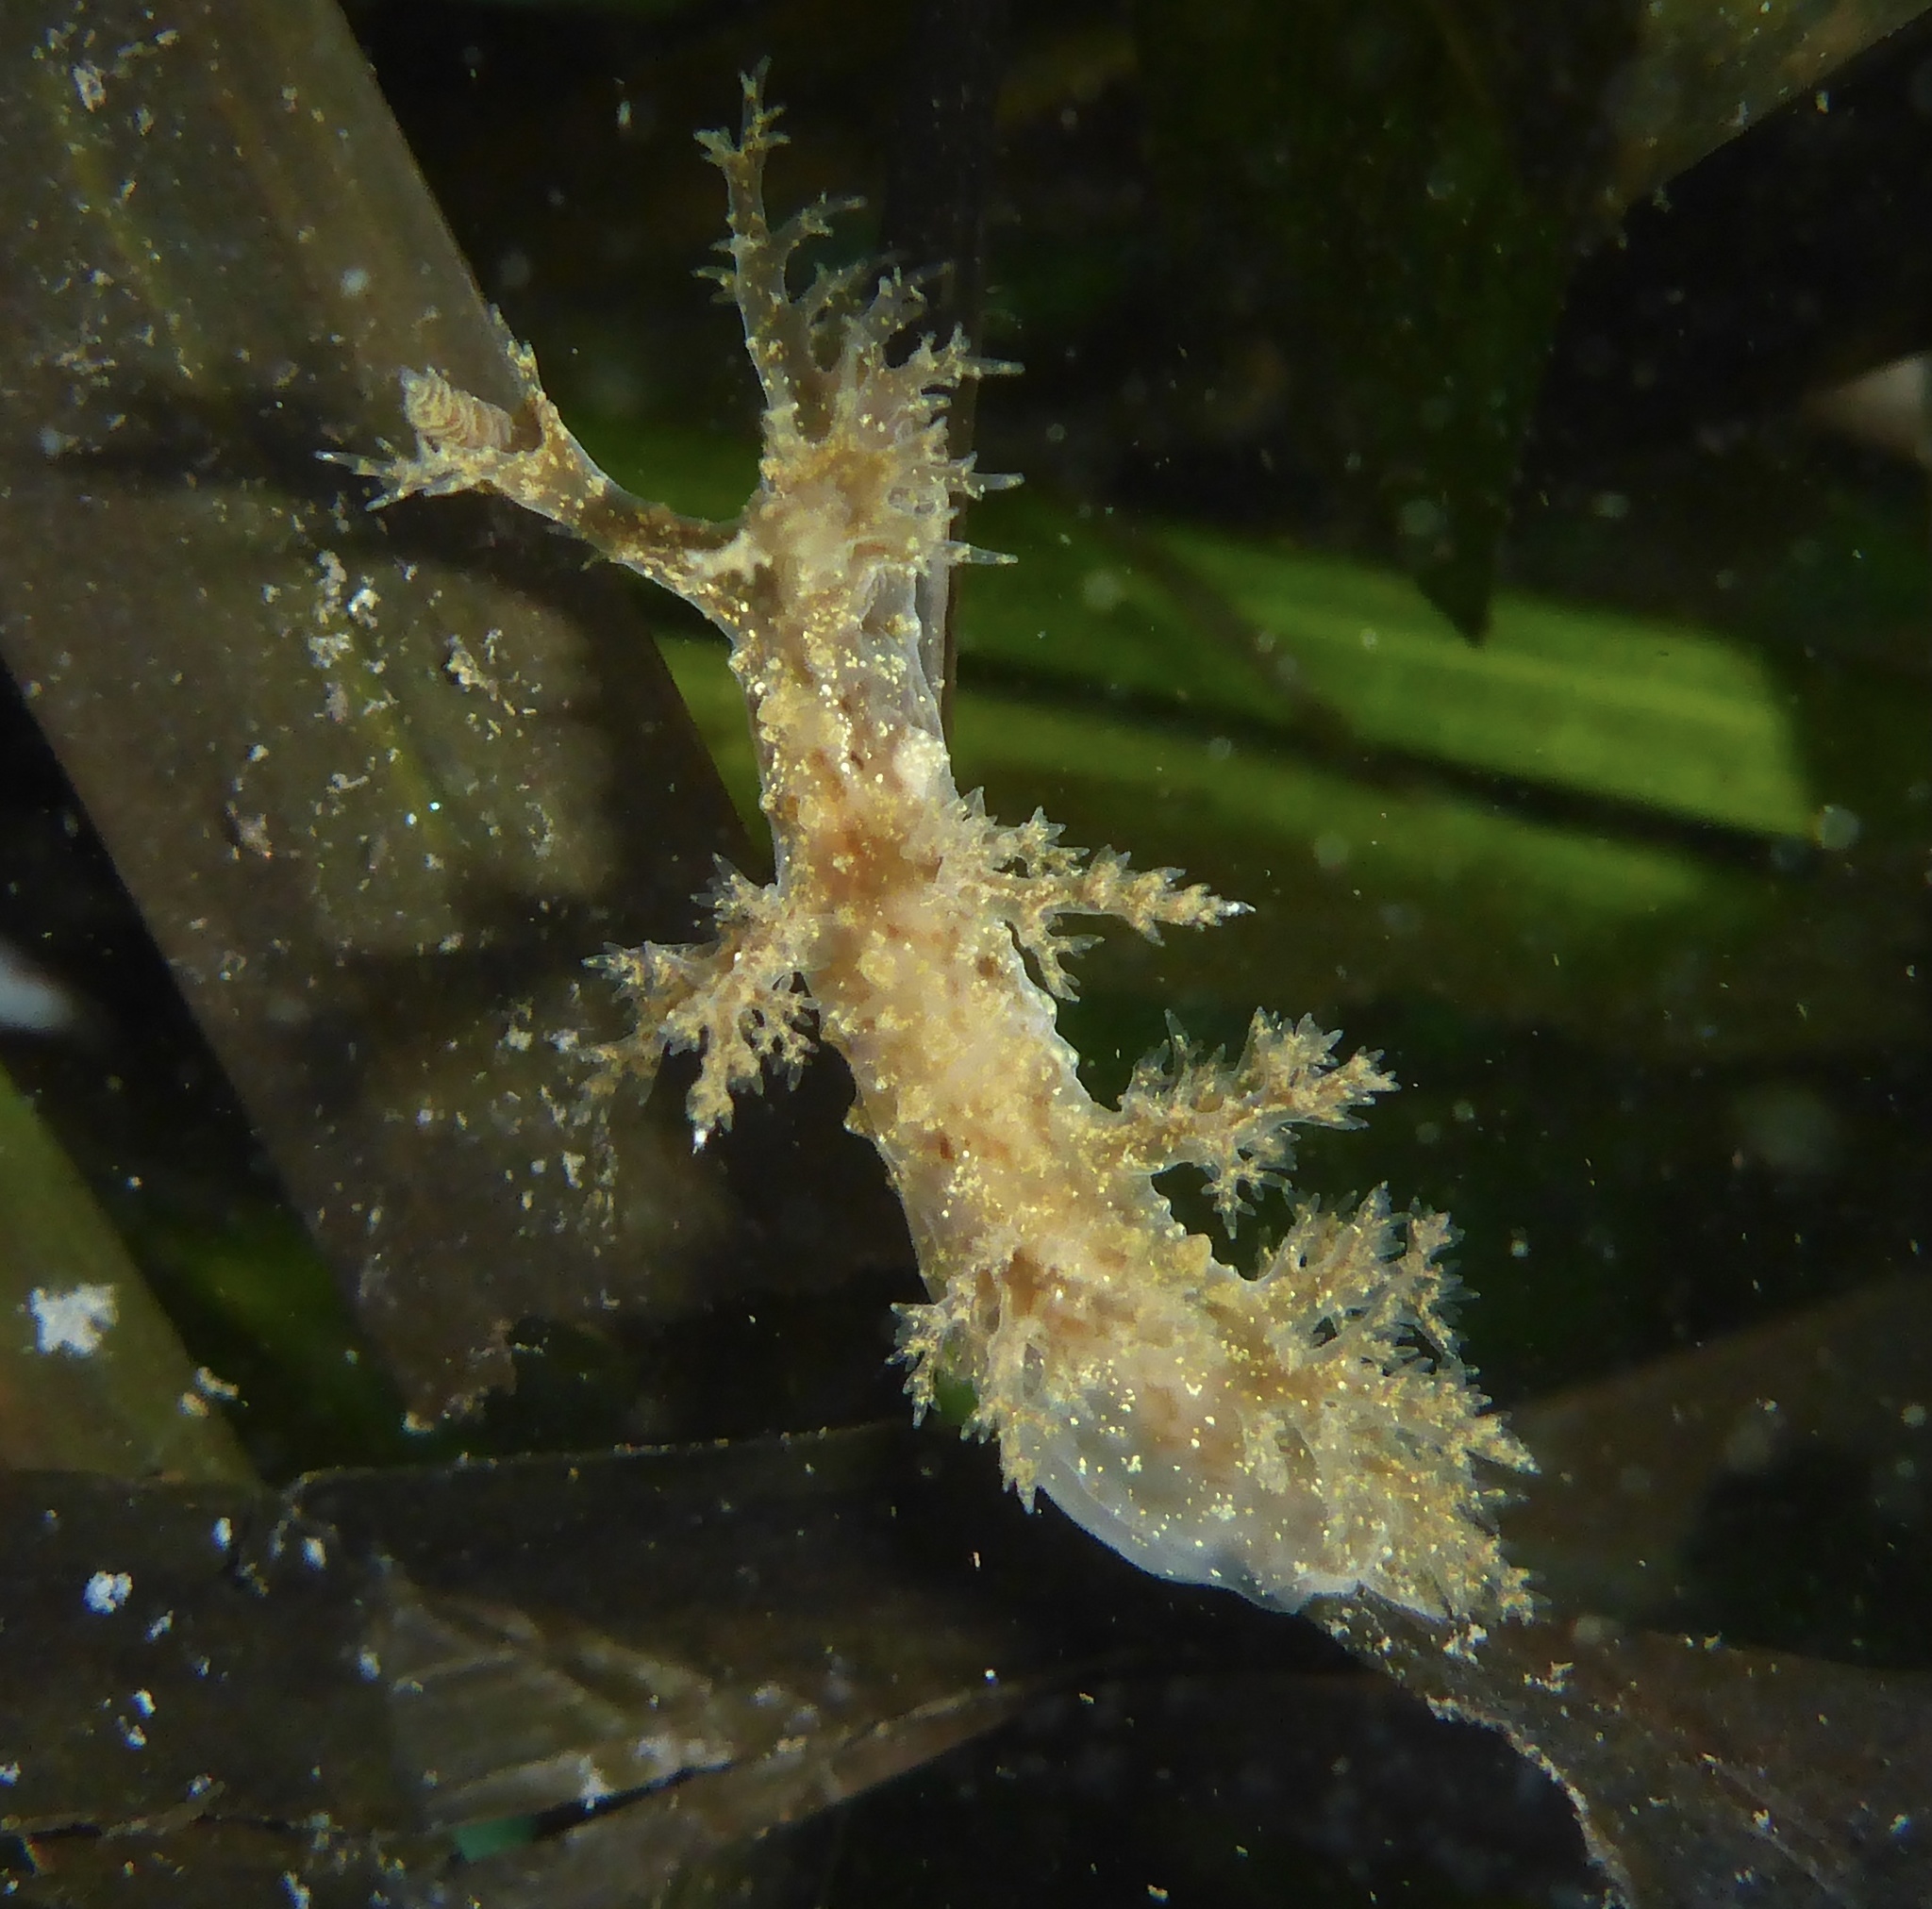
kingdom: Animalia
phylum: Mollusca
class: Gastropoda
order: Nudibranchia
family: Dendronotidae
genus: Dendronotus
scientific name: Dendronotus venustus
